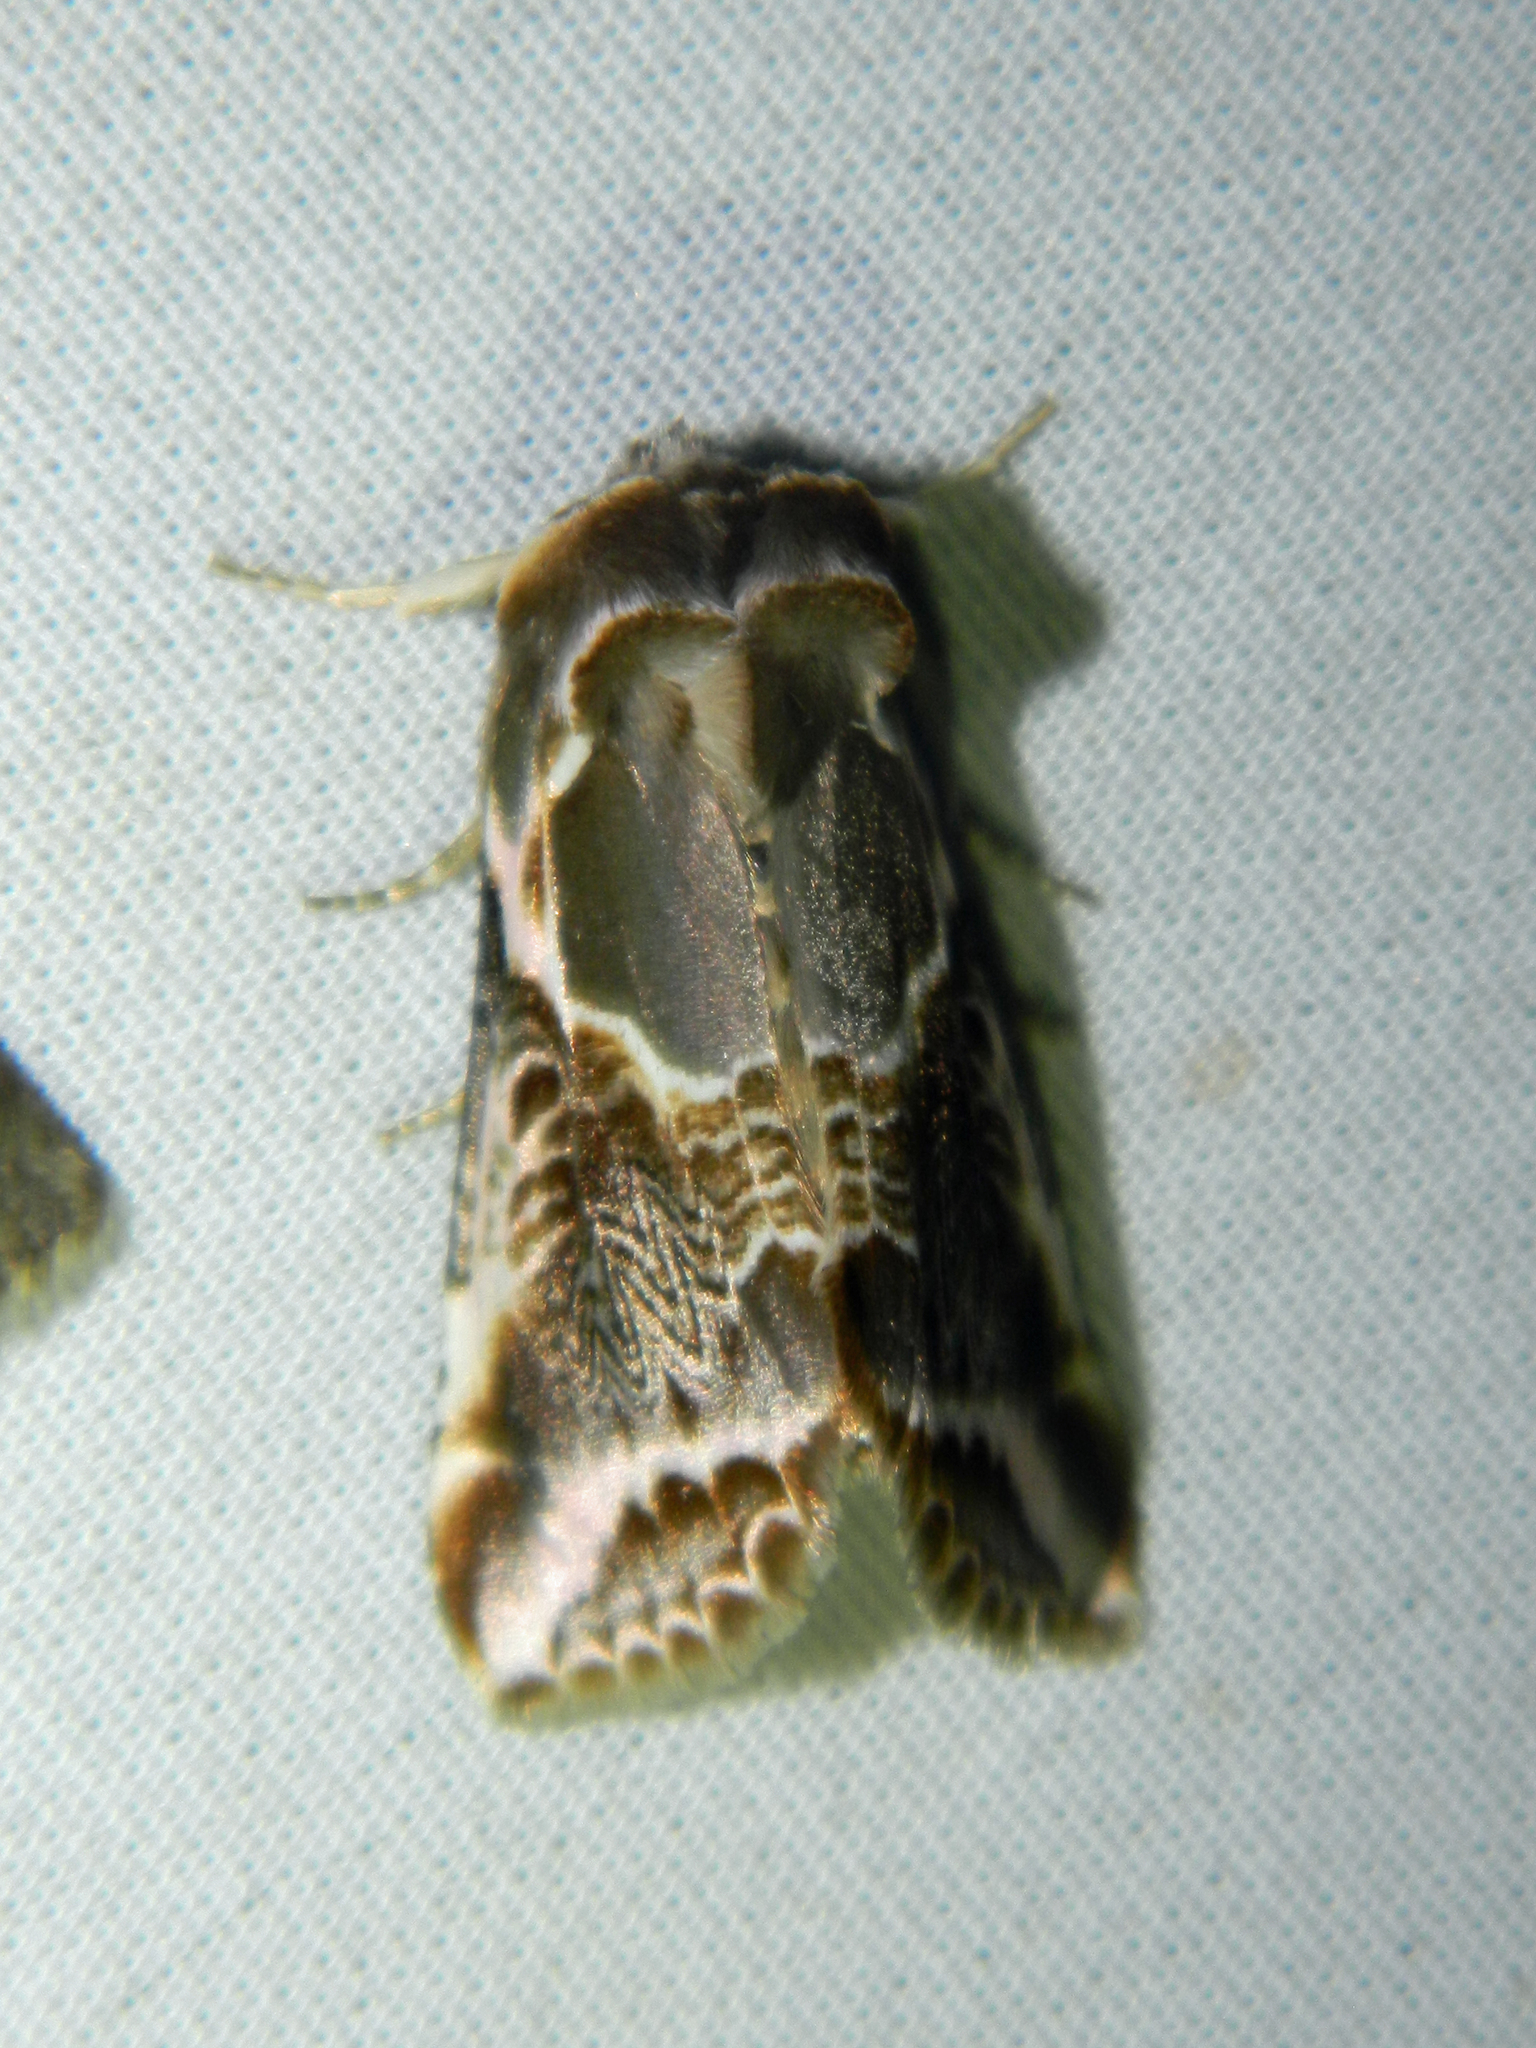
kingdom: Animalia
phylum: Arthropoda
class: Insecta
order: Lepidoptera
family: Drepanidae
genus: Habrosyne
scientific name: Habrosyne scripta
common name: Lettered habrosyne moth
